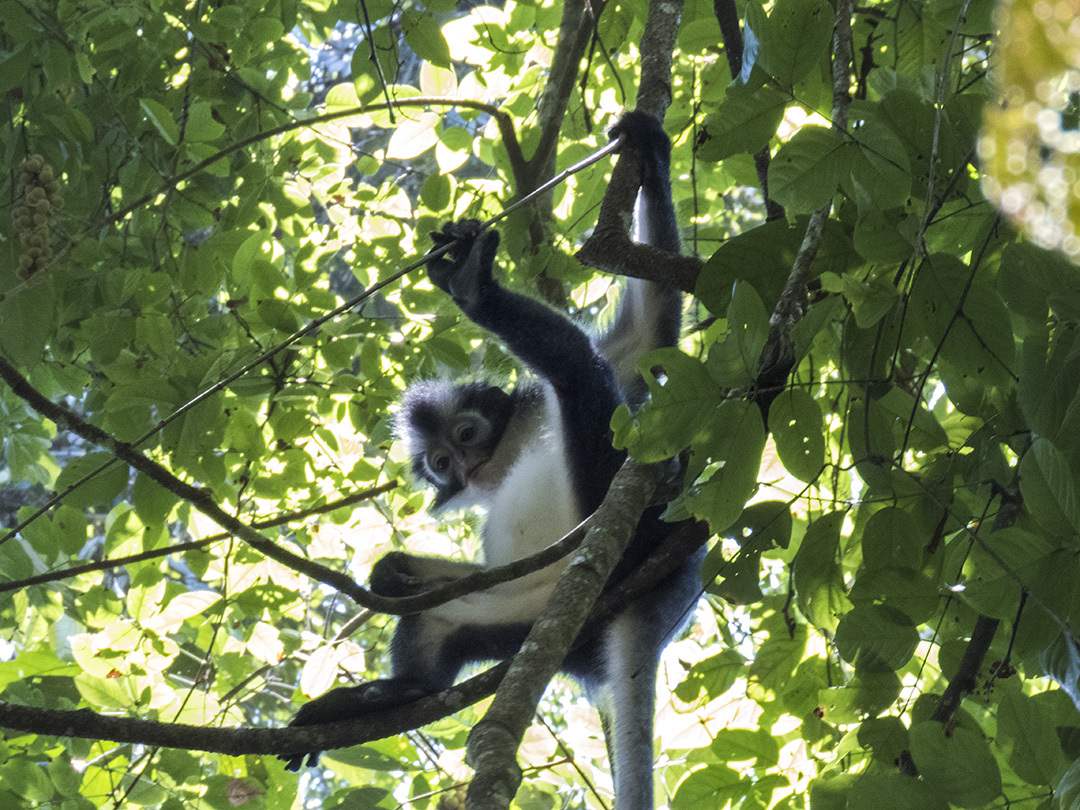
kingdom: Animalia
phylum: Chordata
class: Mammalia
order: Primates
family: Cercopithecidae
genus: Presbytis
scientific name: Presbytis thomasi
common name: Thomas's langur
